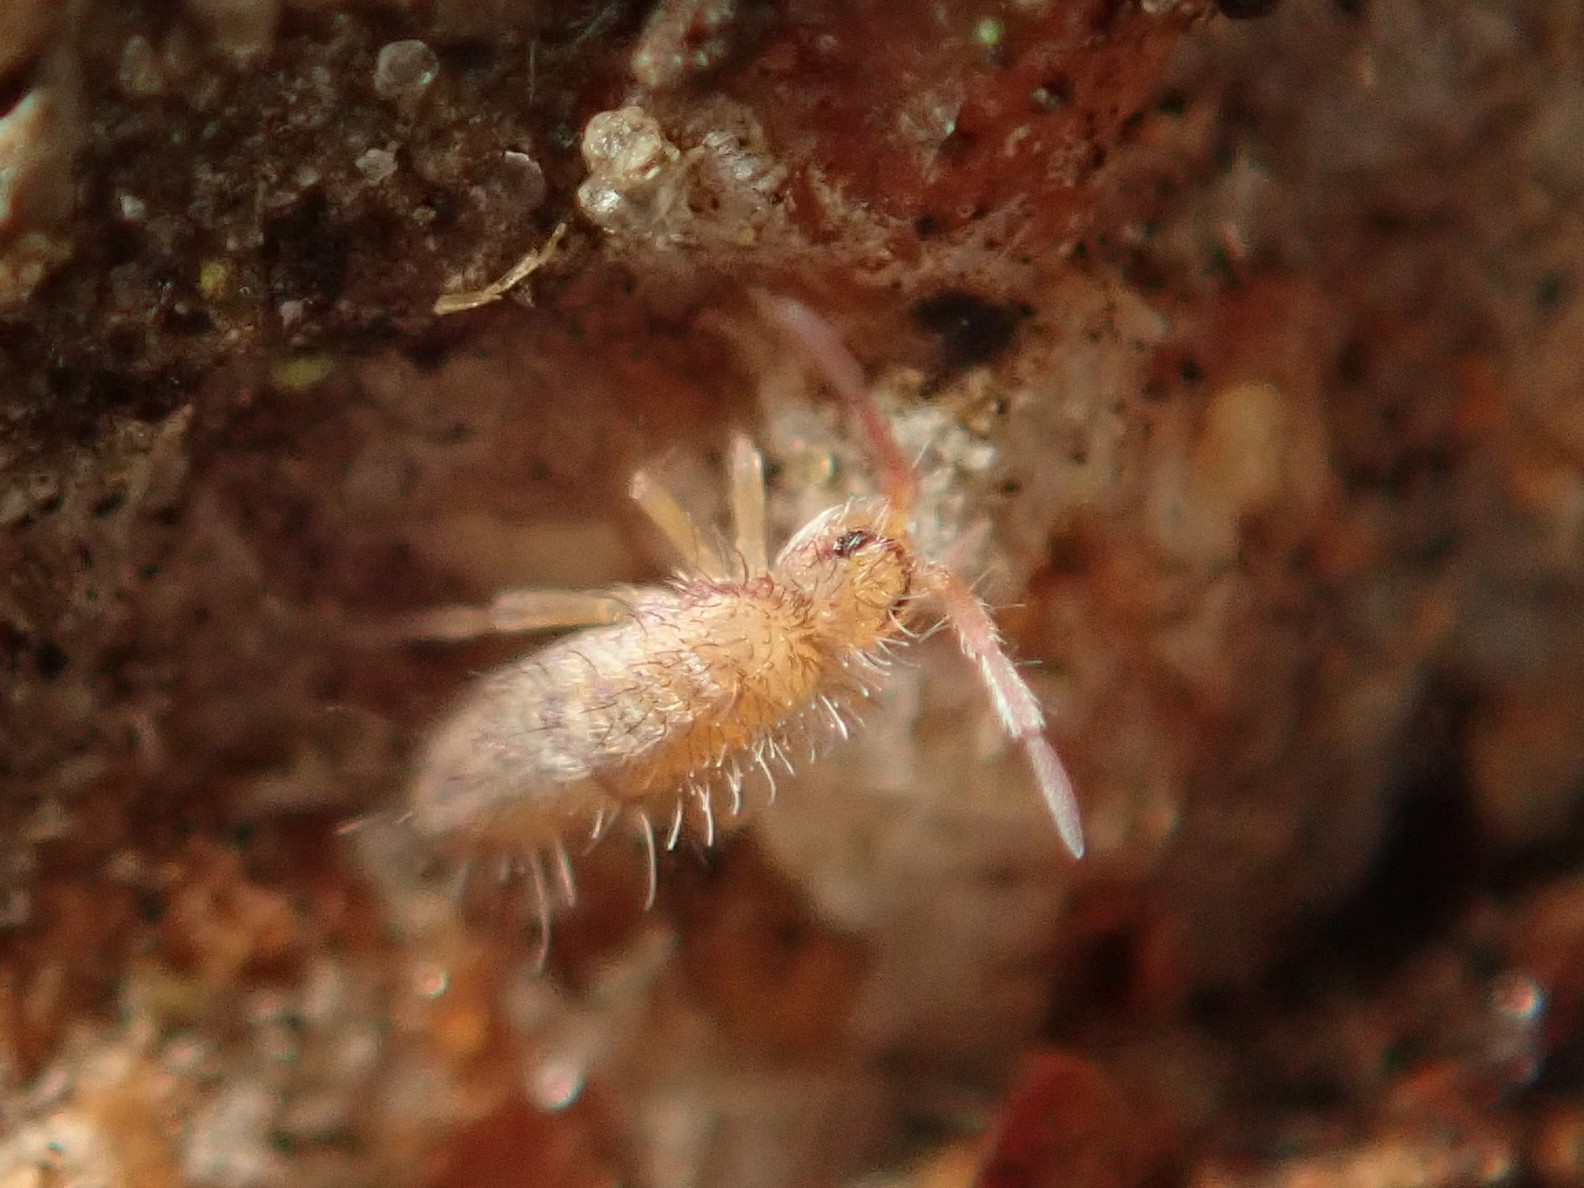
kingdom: Animalia
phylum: Arthropoda
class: Collembola
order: Entomobryomorpha
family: Entomobryidae
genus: Entomobrya
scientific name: Entomobrya multifasciata
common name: Springtail
